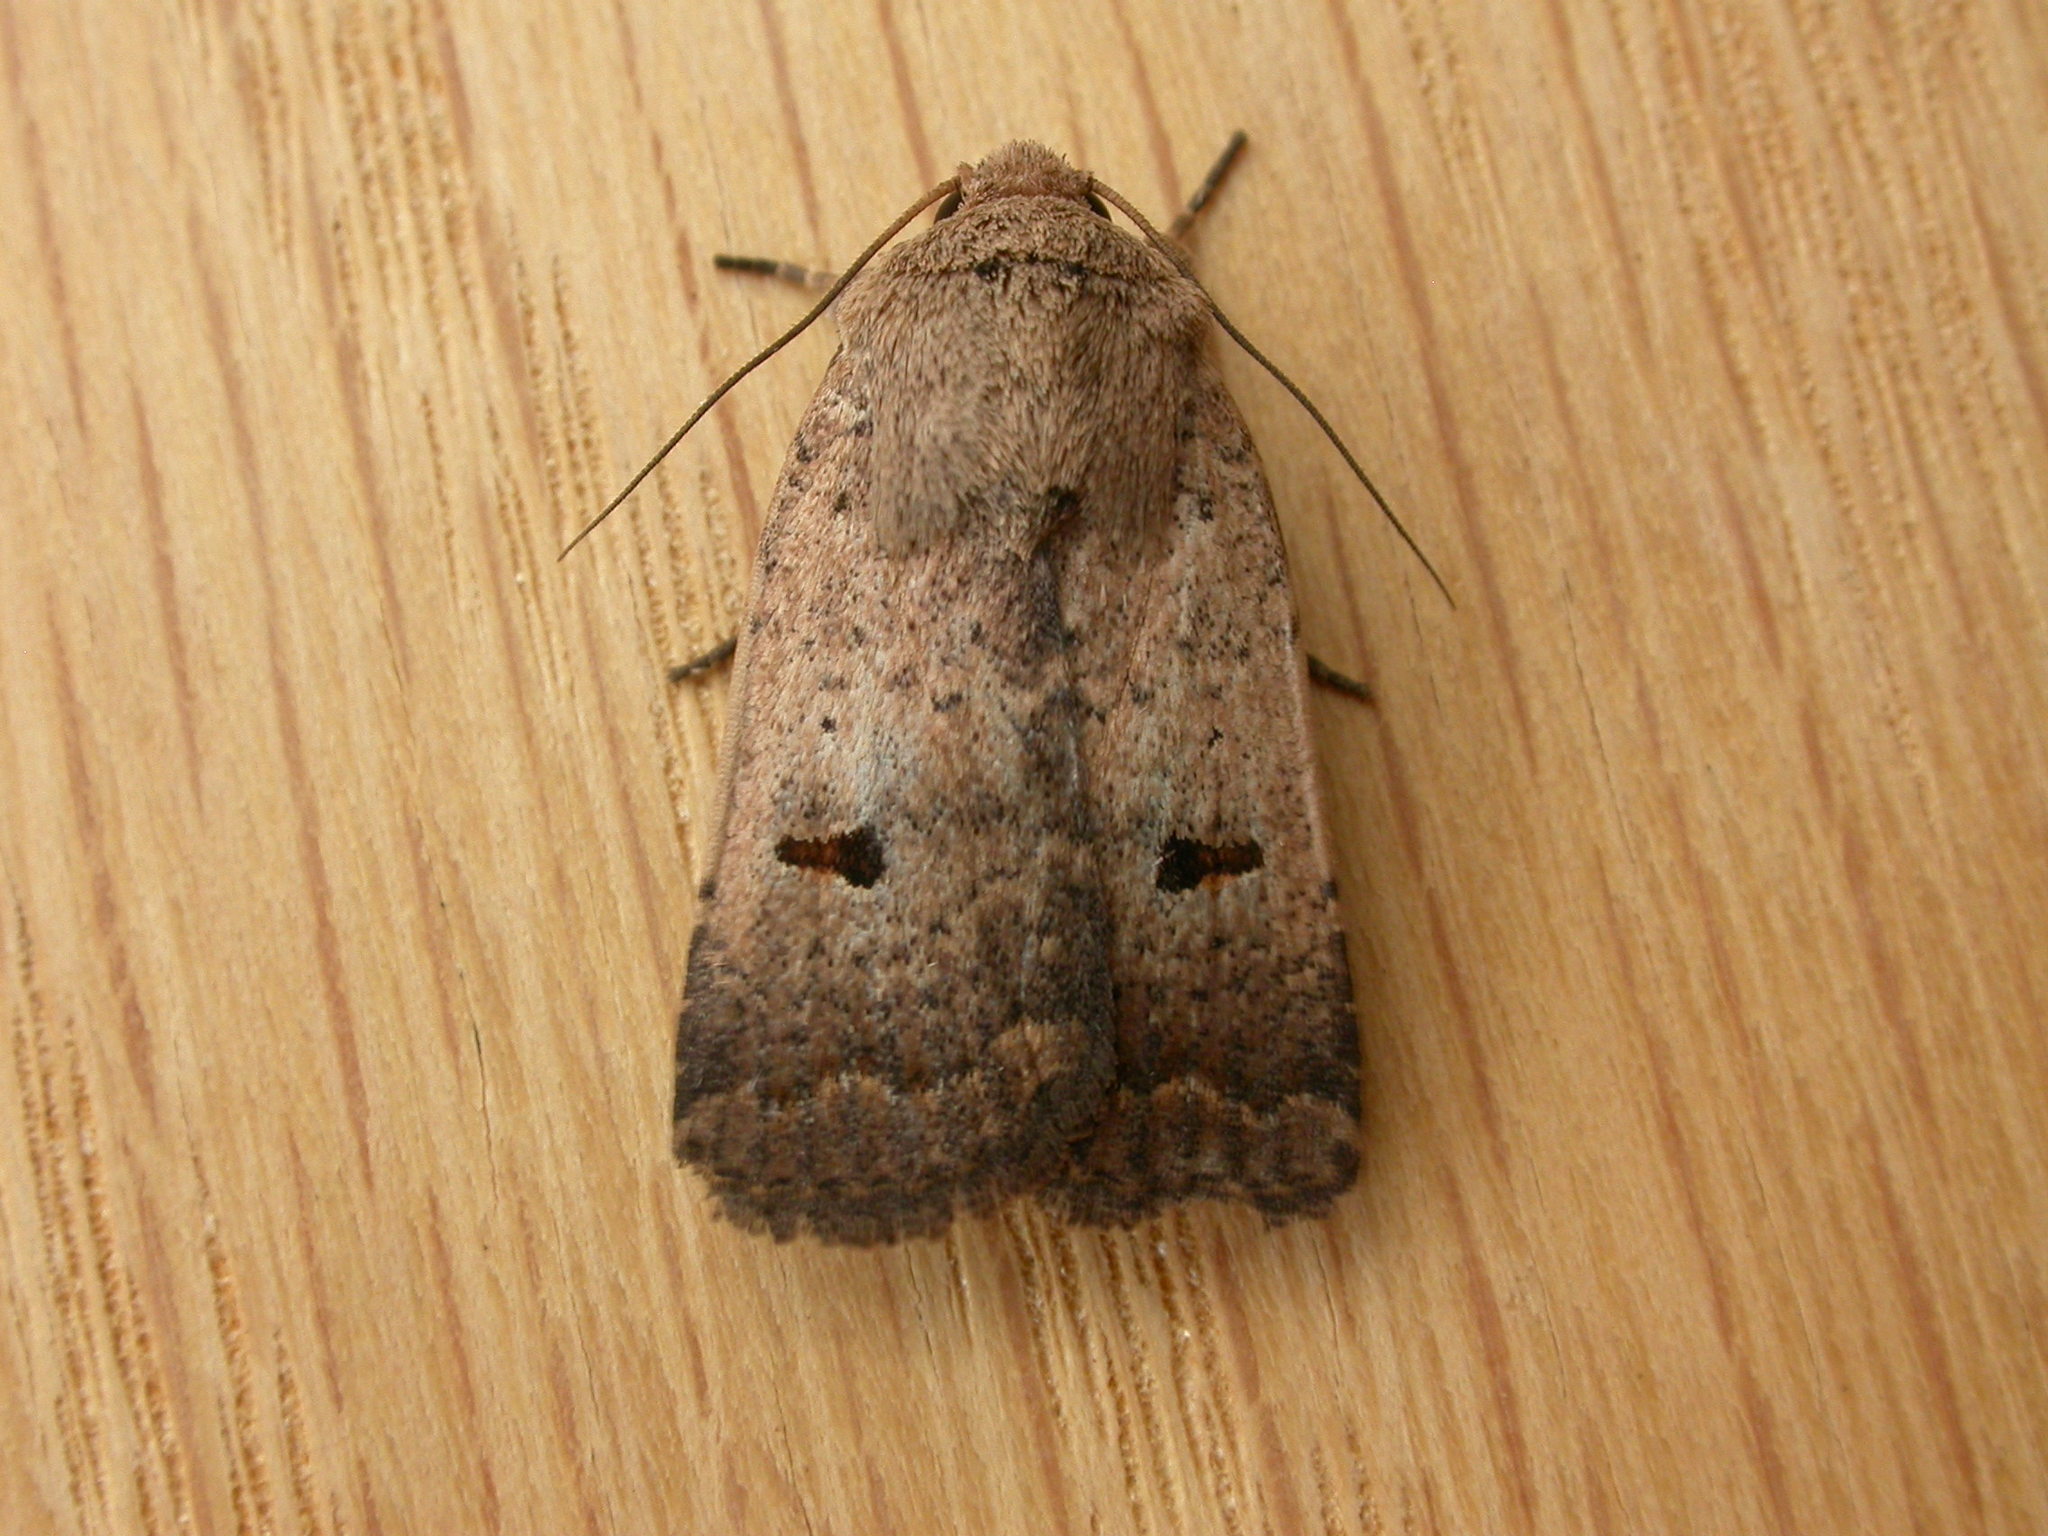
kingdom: Animalia
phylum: Arthropoda
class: Insecta
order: Lepidoptera
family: Noctuidae
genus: Proteuxoa
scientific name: Proteuxoa hypochalchis
